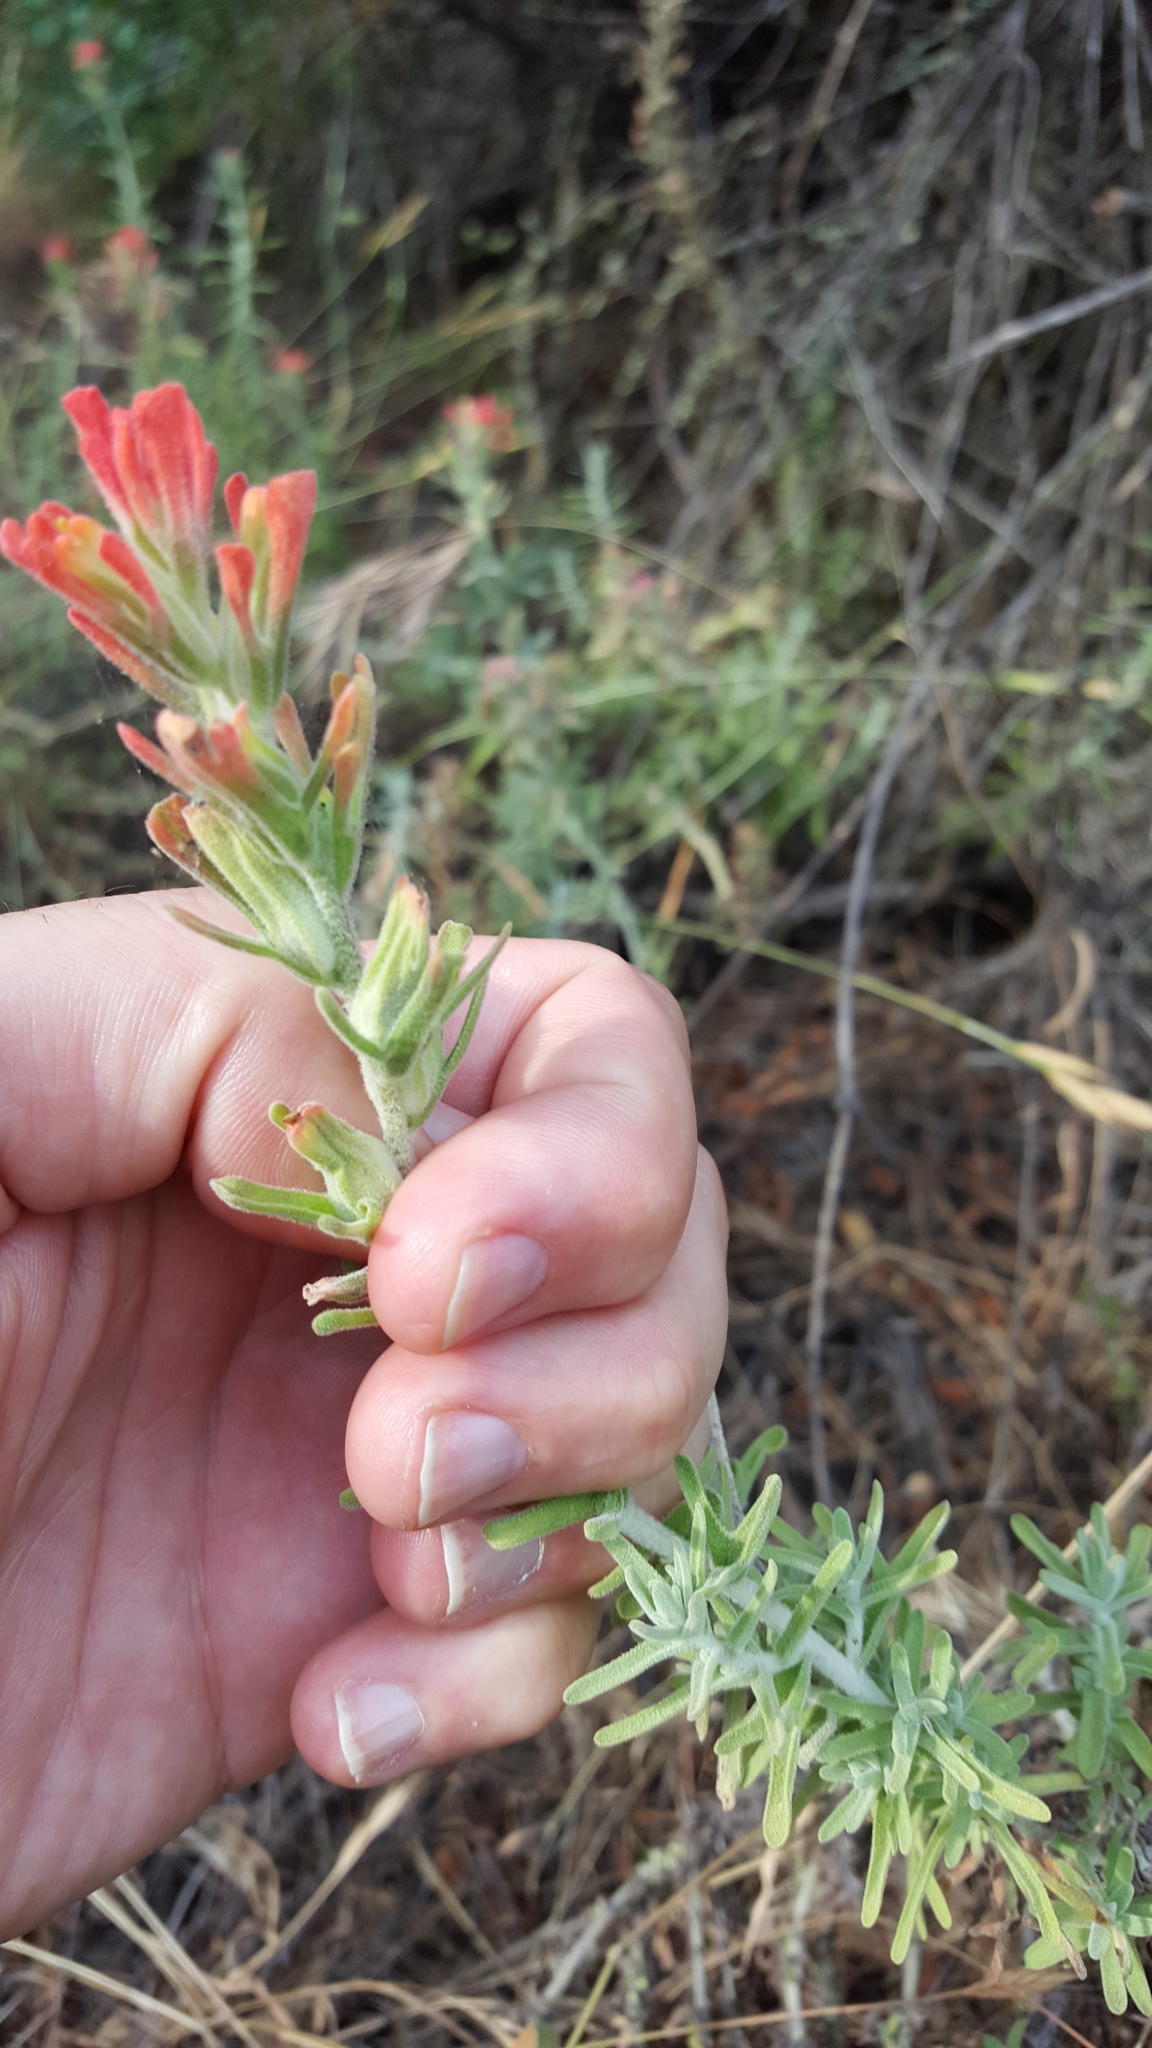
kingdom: Plantae
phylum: Tracheophyta
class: Magnoliopsida
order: Lamiales
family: Orobanchaceae
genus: Castilleja
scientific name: Castilleja
